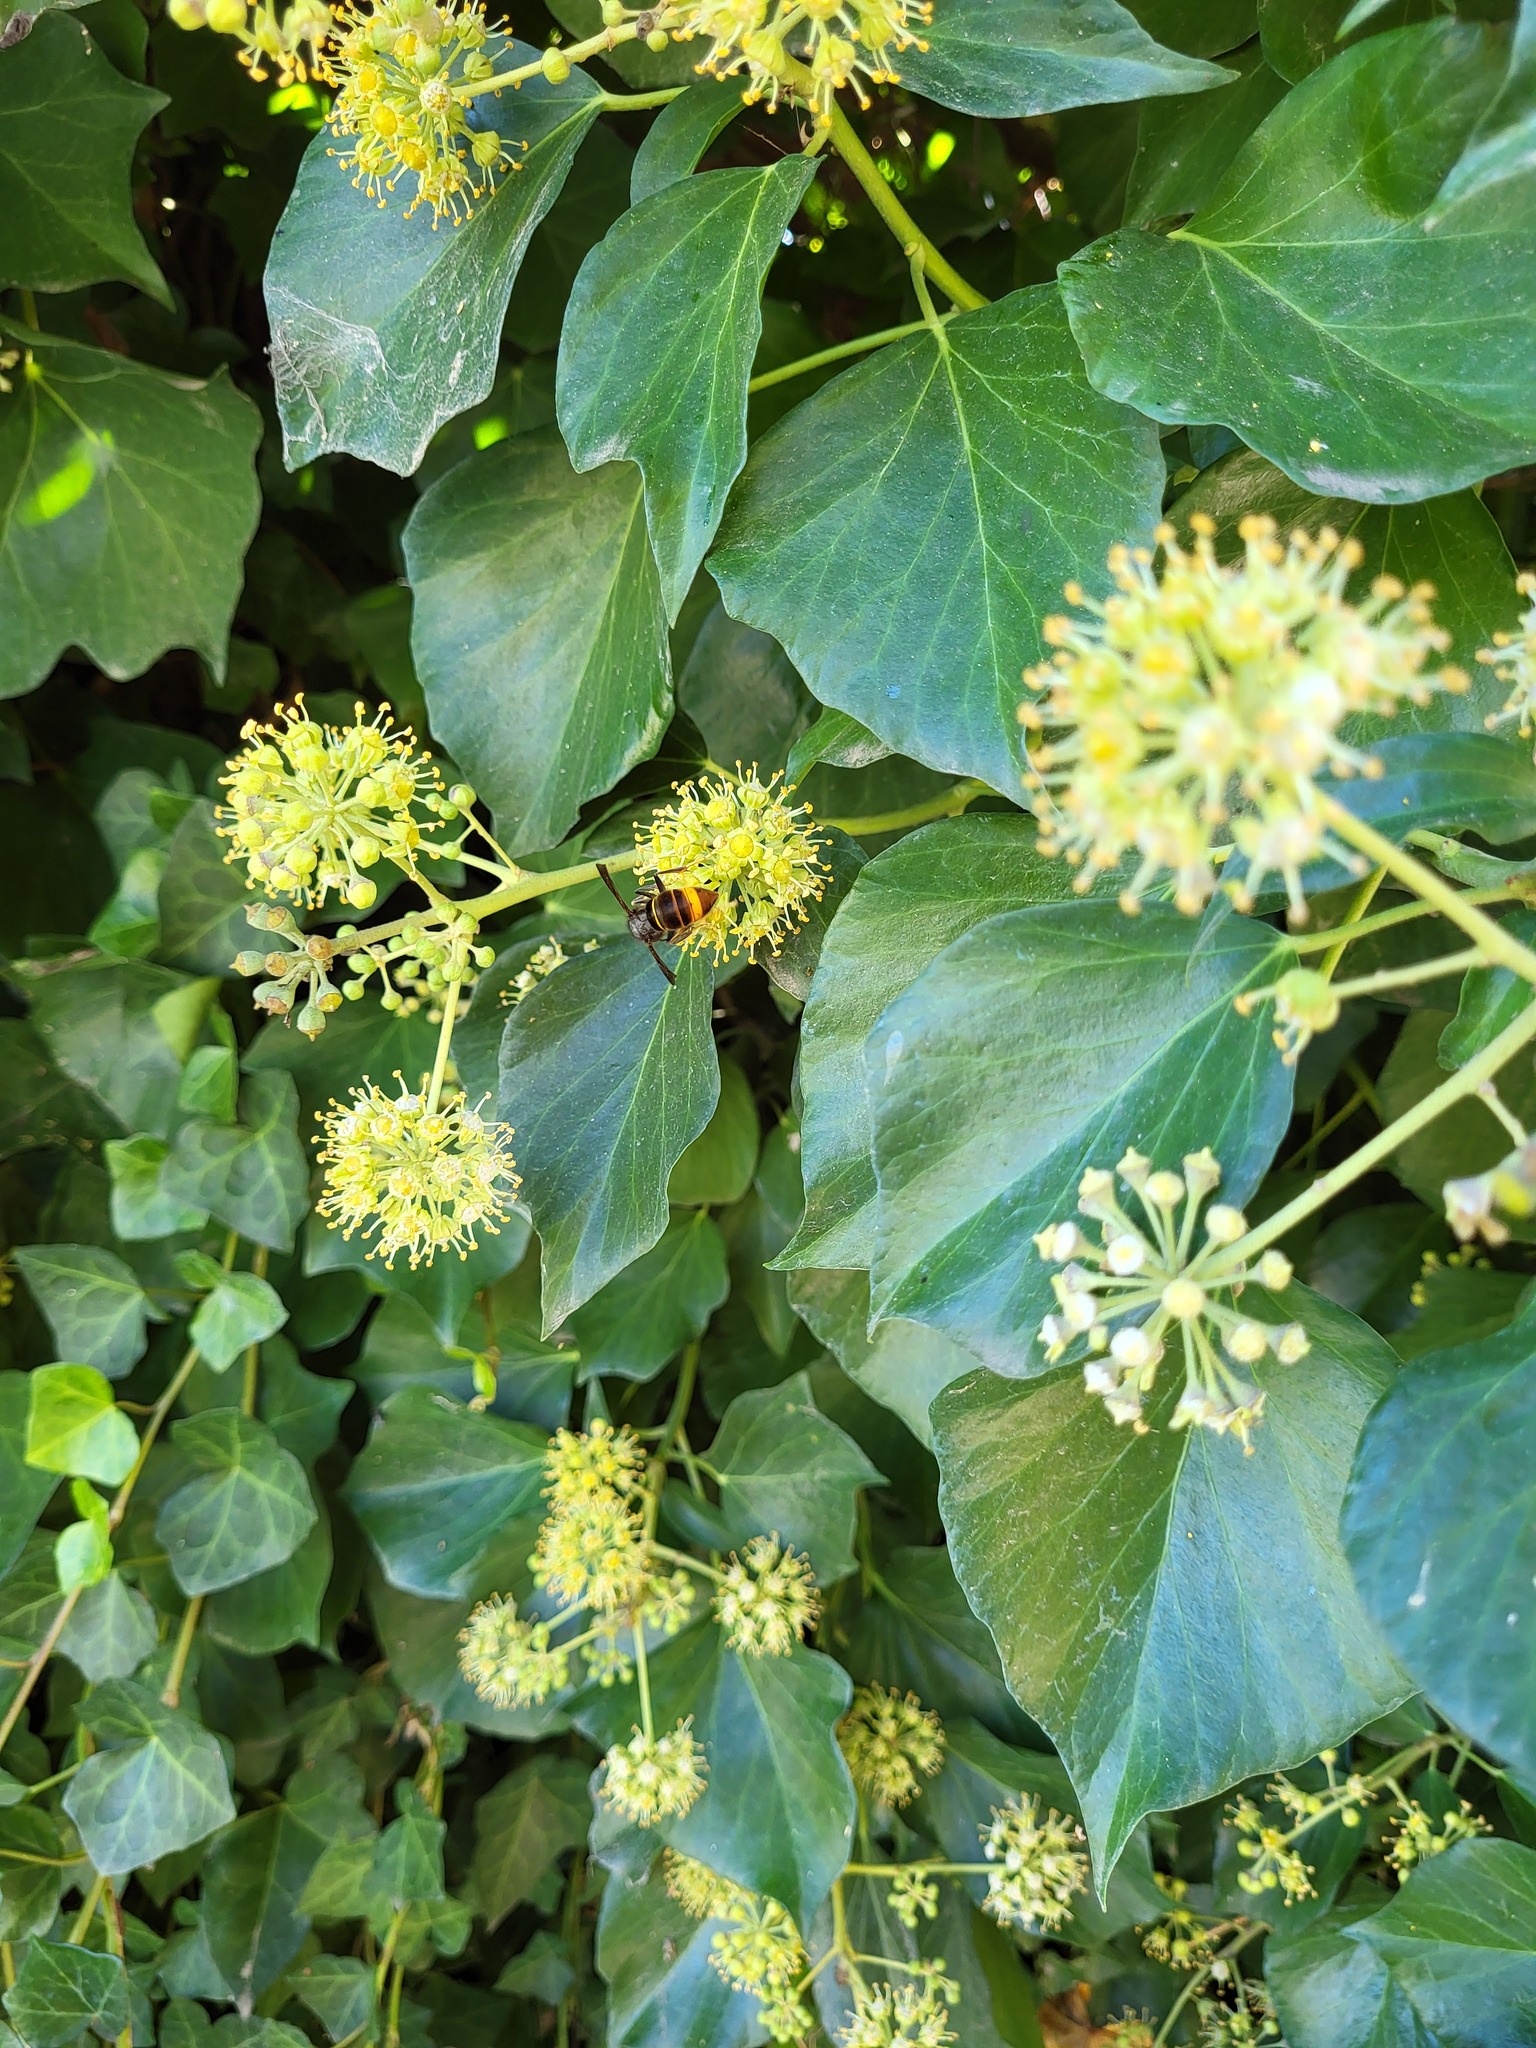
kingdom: Animalia
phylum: Arthropoda
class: Insecta
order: Hymenoptera
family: Vespidae
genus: Vespa
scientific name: Vespa velutina
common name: Asian hornet
